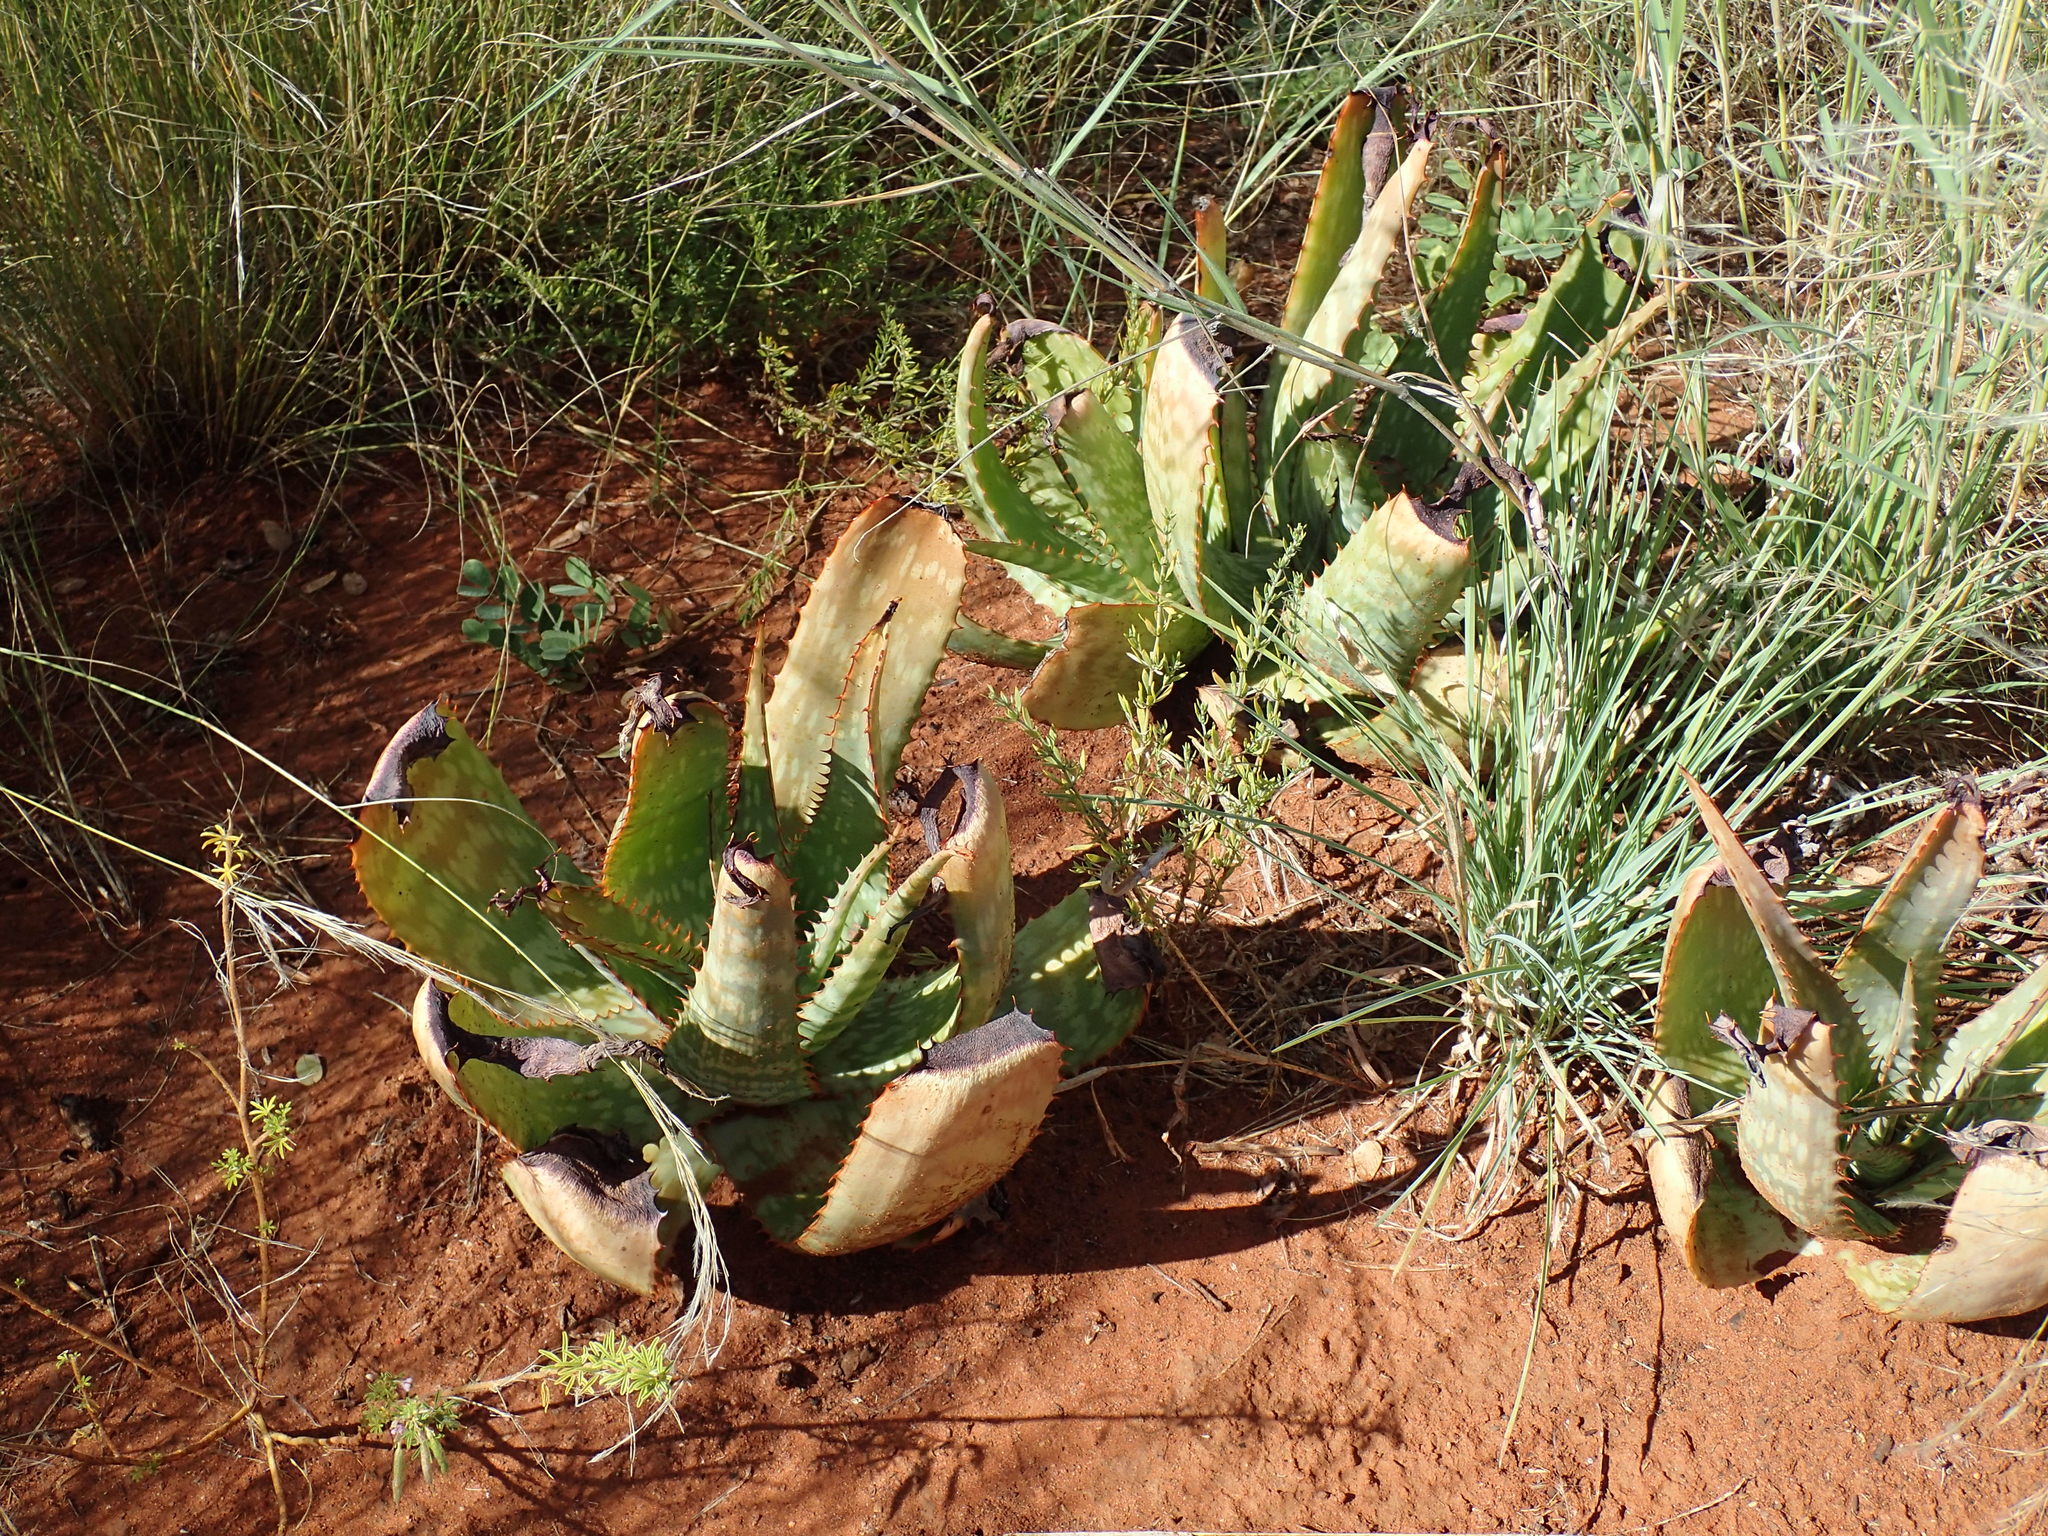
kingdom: Plantae
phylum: Tracheophyta
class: Liliopsida
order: Asparagales
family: Asphodelaceae
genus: Aloe
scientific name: Aloe grandidentata
